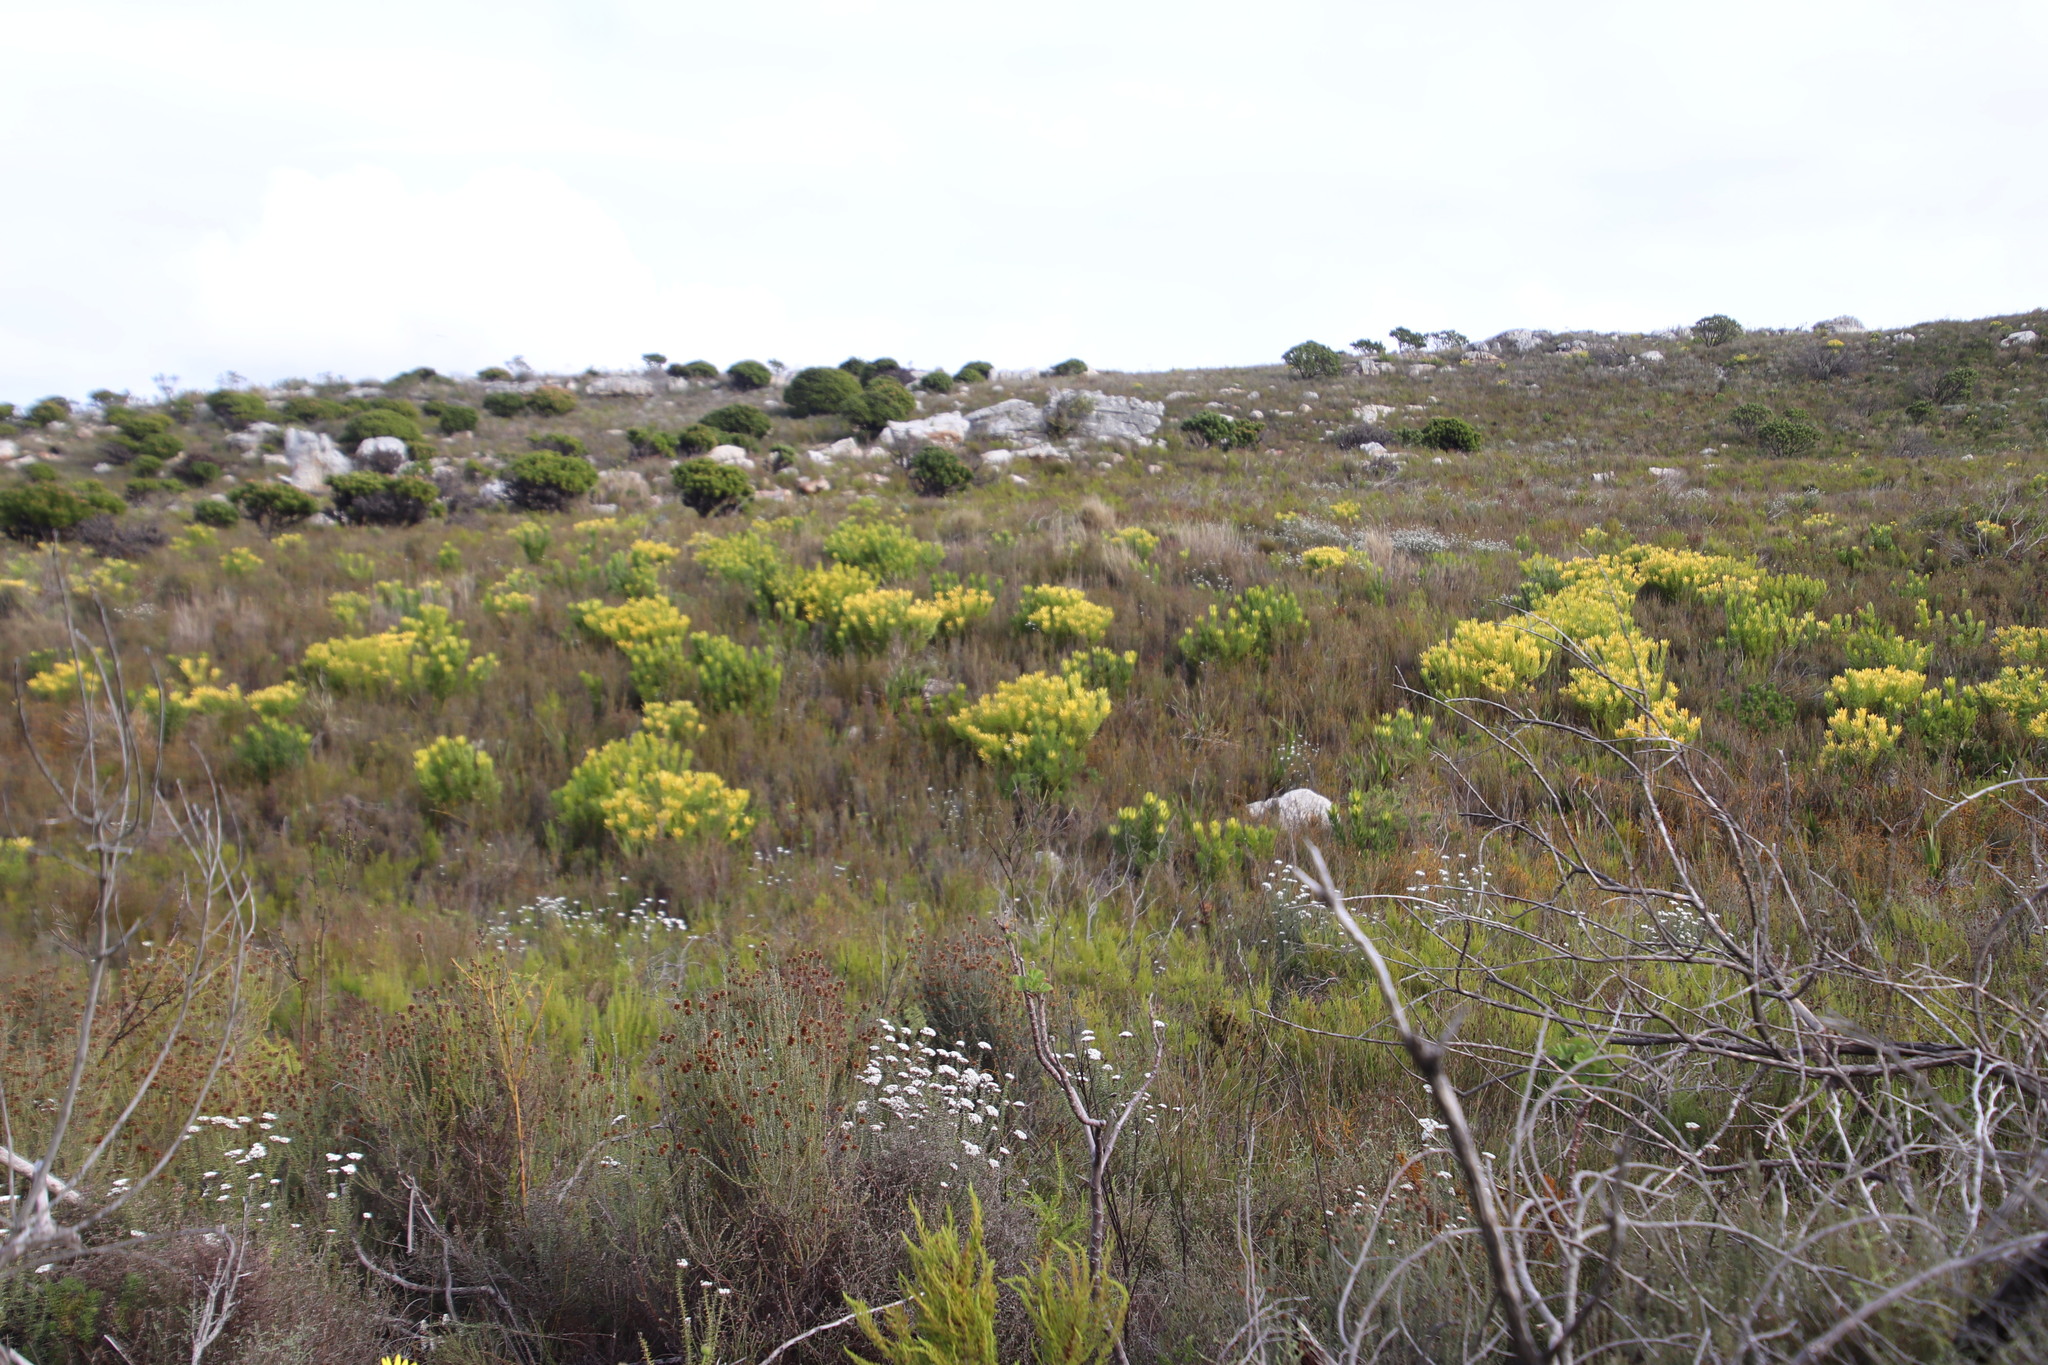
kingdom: Plantae
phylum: Tracheophyta
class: Magnoliopsida
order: Proteales
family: Proteaceae
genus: Leucadendron
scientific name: Leucadendron laureolum
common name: Golden sunshinebush
